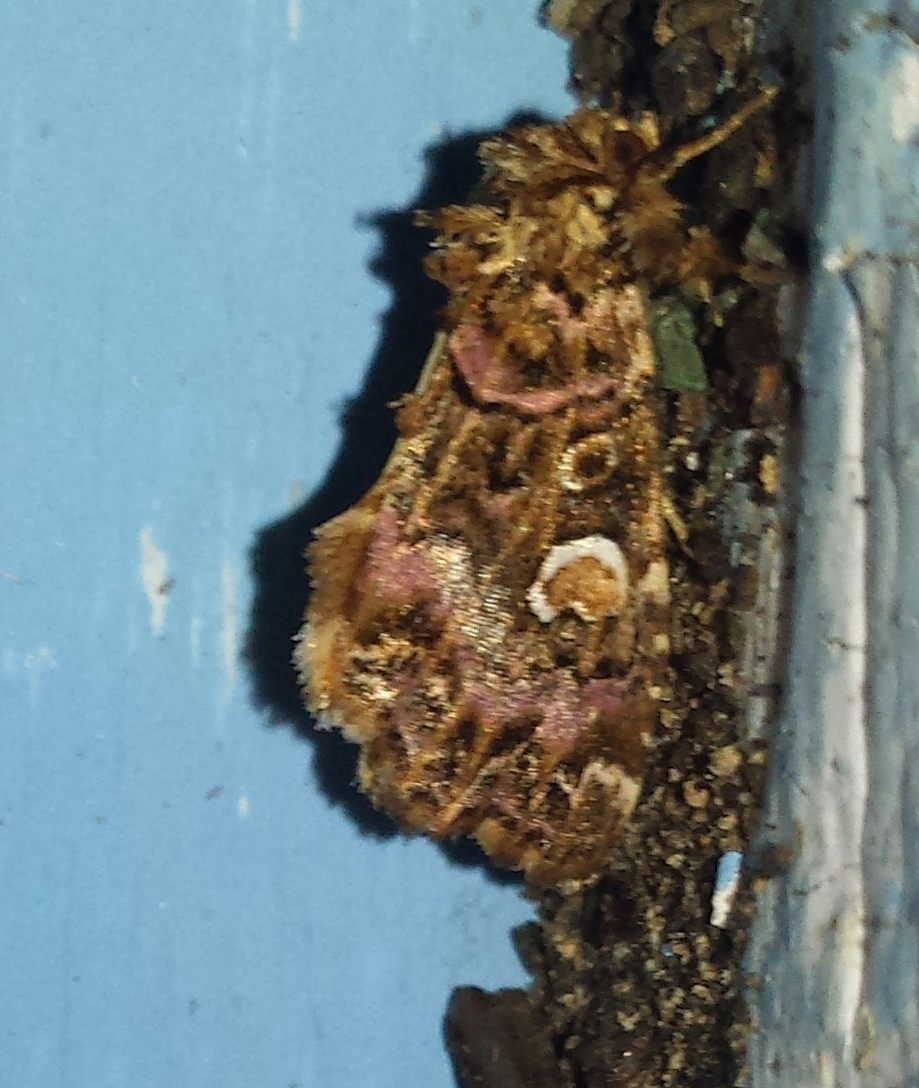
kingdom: Animalia
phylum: Arthropoda
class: Insecta
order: Lepidoptera
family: Noctuidae
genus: Callopistria
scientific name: Callopistria mollissima
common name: Pink-shaded fern moth
